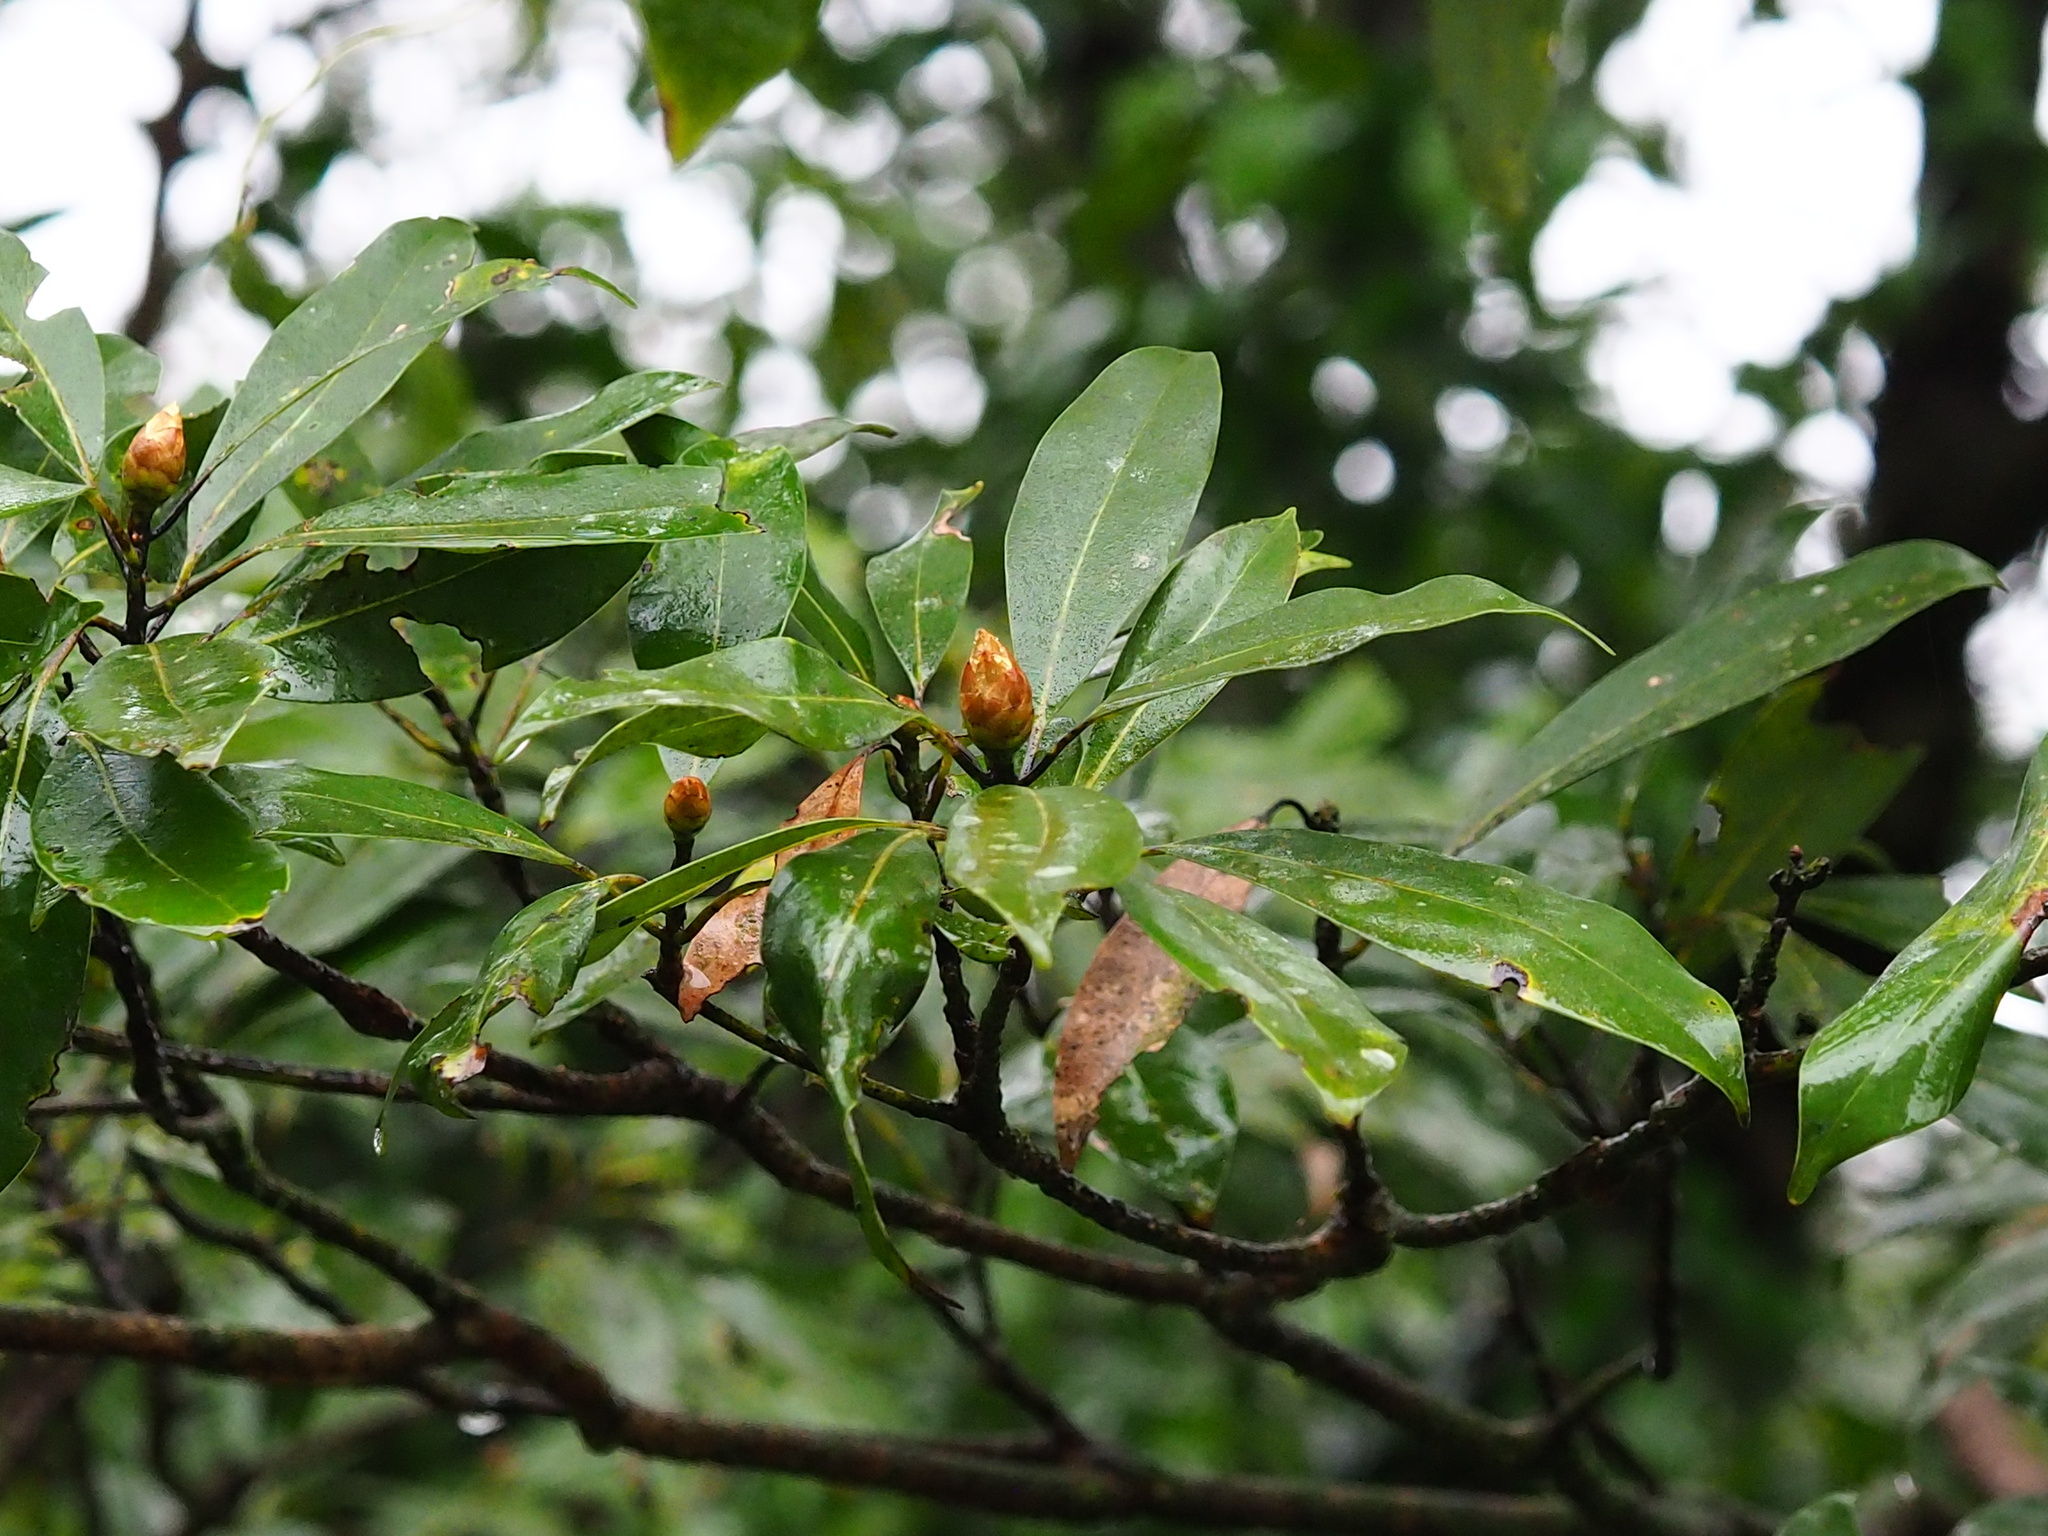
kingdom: Plantae
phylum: Tracheophyta
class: Magnoliopsida
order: Laurales
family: Lauraceae
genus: Machilus
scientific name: Machilus thunbergii
